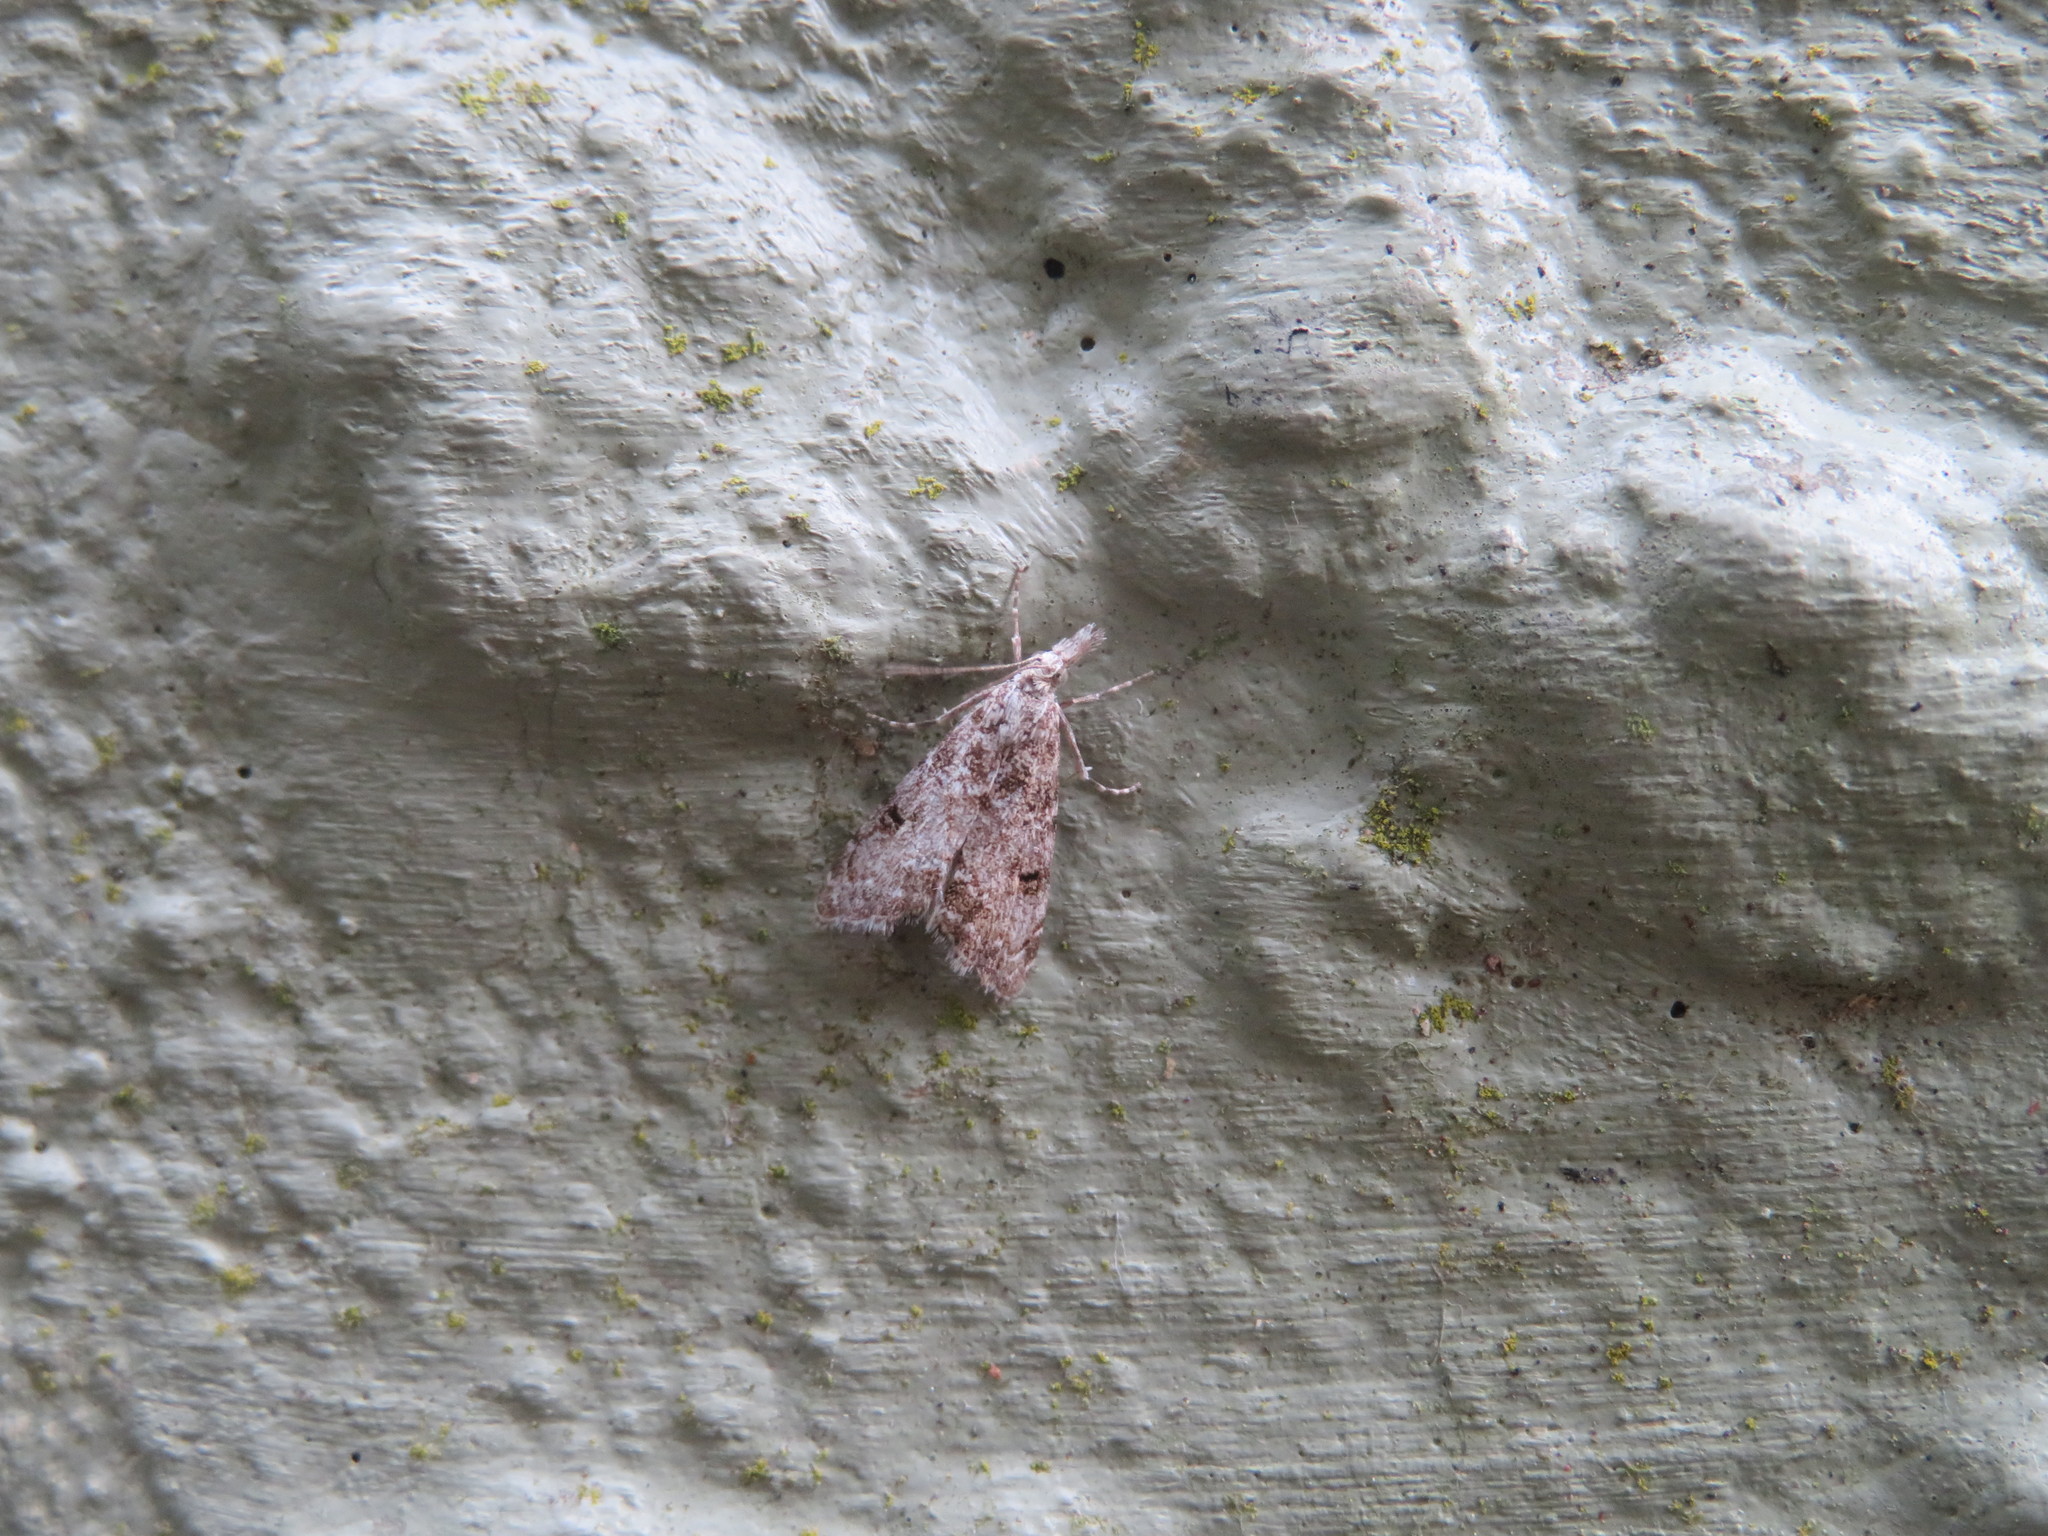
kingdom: Animalia
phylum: Arthropoda
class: Insecta
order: Lepidoptera
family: Crambidae
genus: Glaucocharis
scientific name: Glaucocharis elaina
